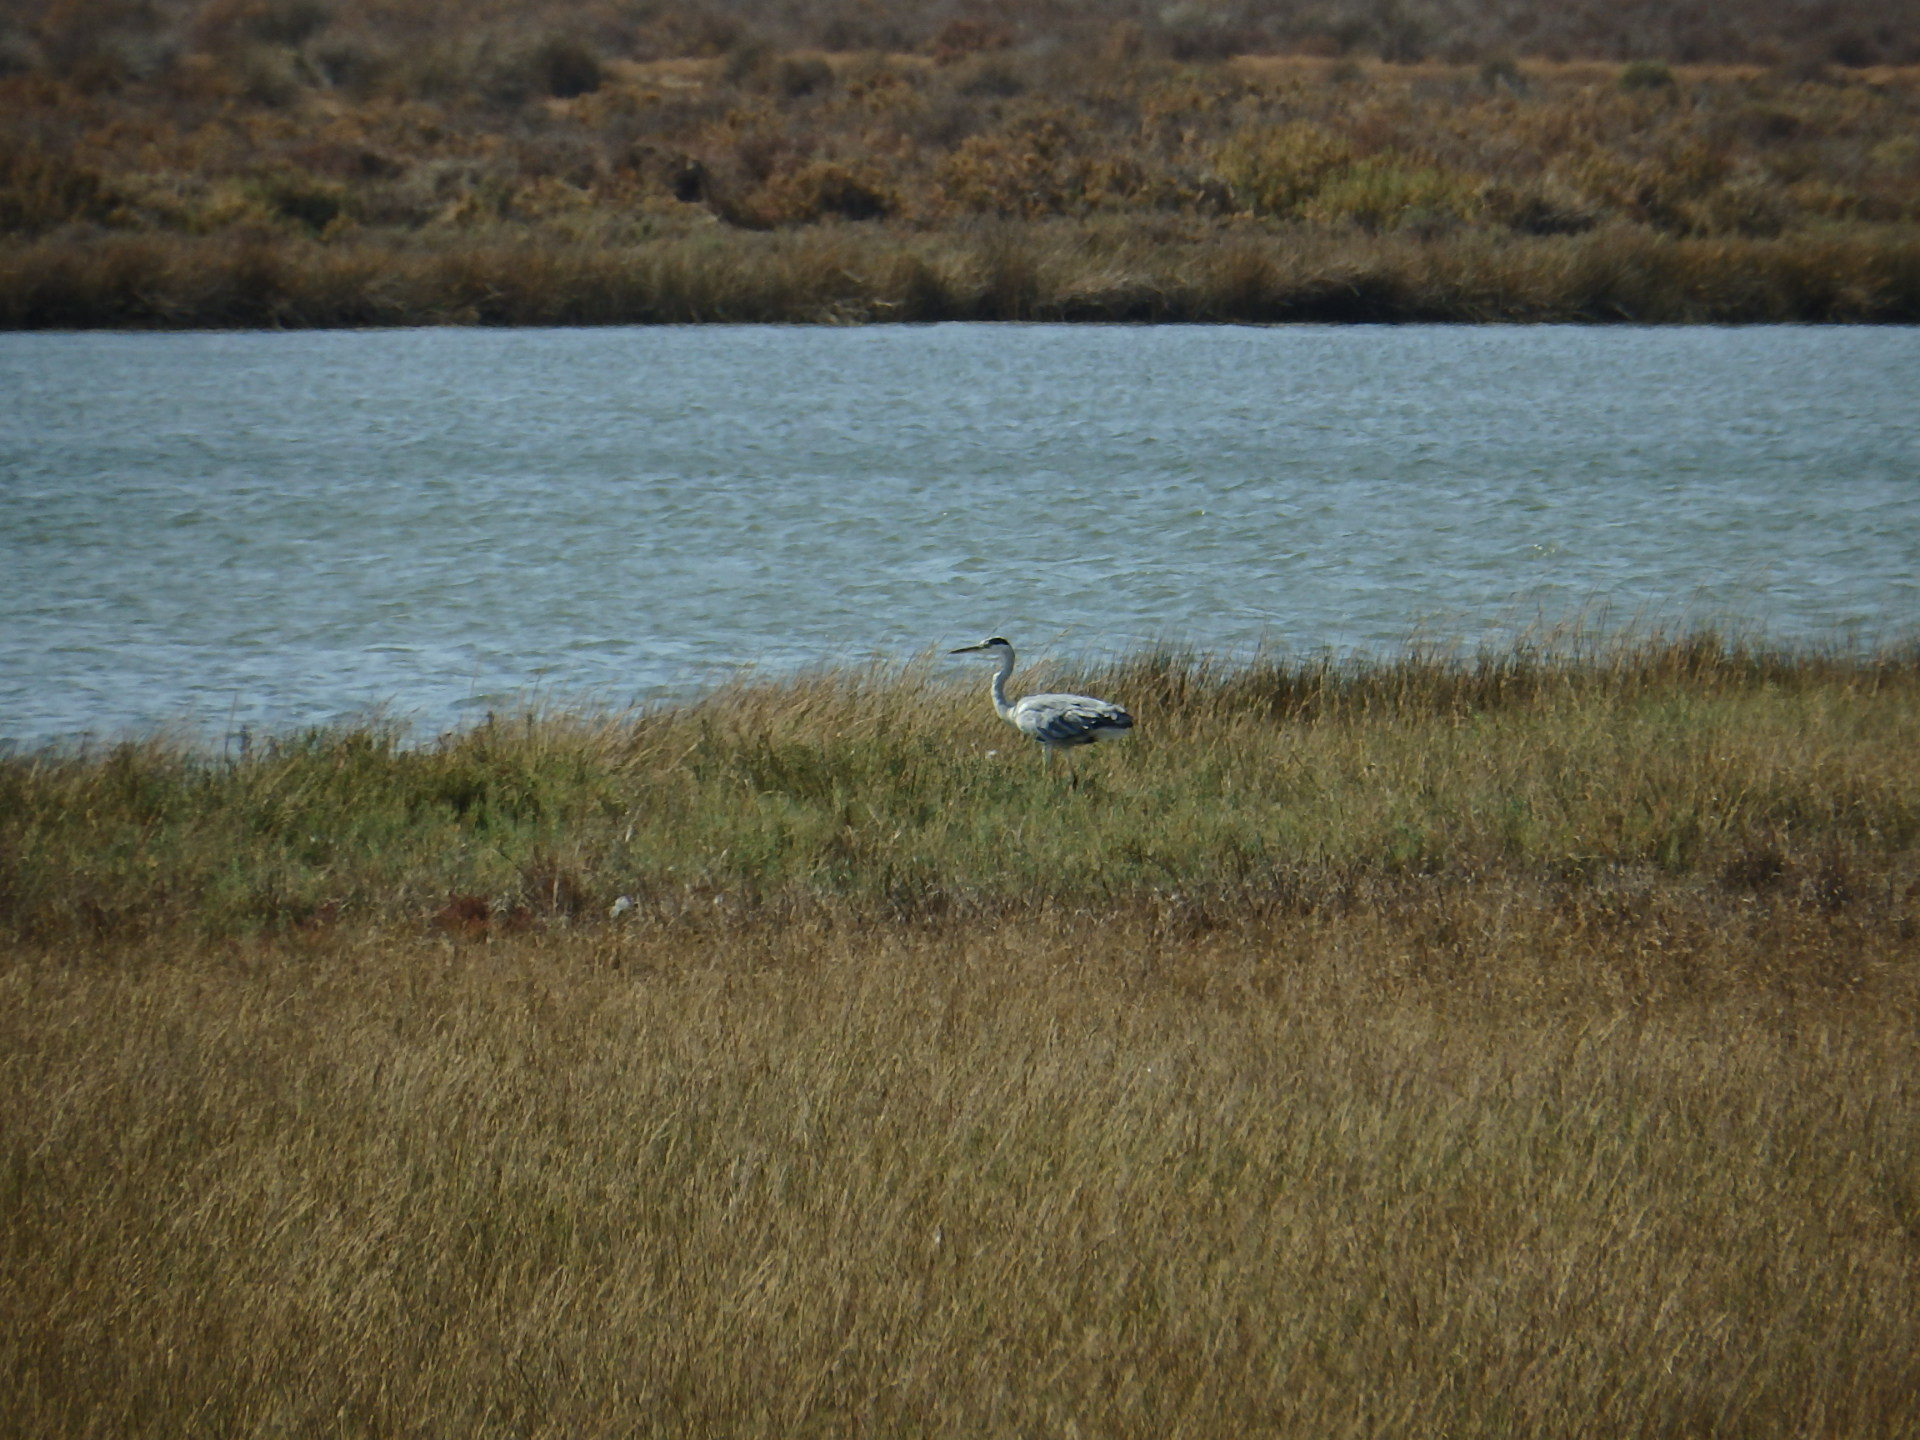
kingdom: Animalia
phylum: Chordata
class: Aves
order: Pelecaniformes
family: Ardeidae
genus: Ardea
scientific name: Ardea cinerea
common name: Grey heron
